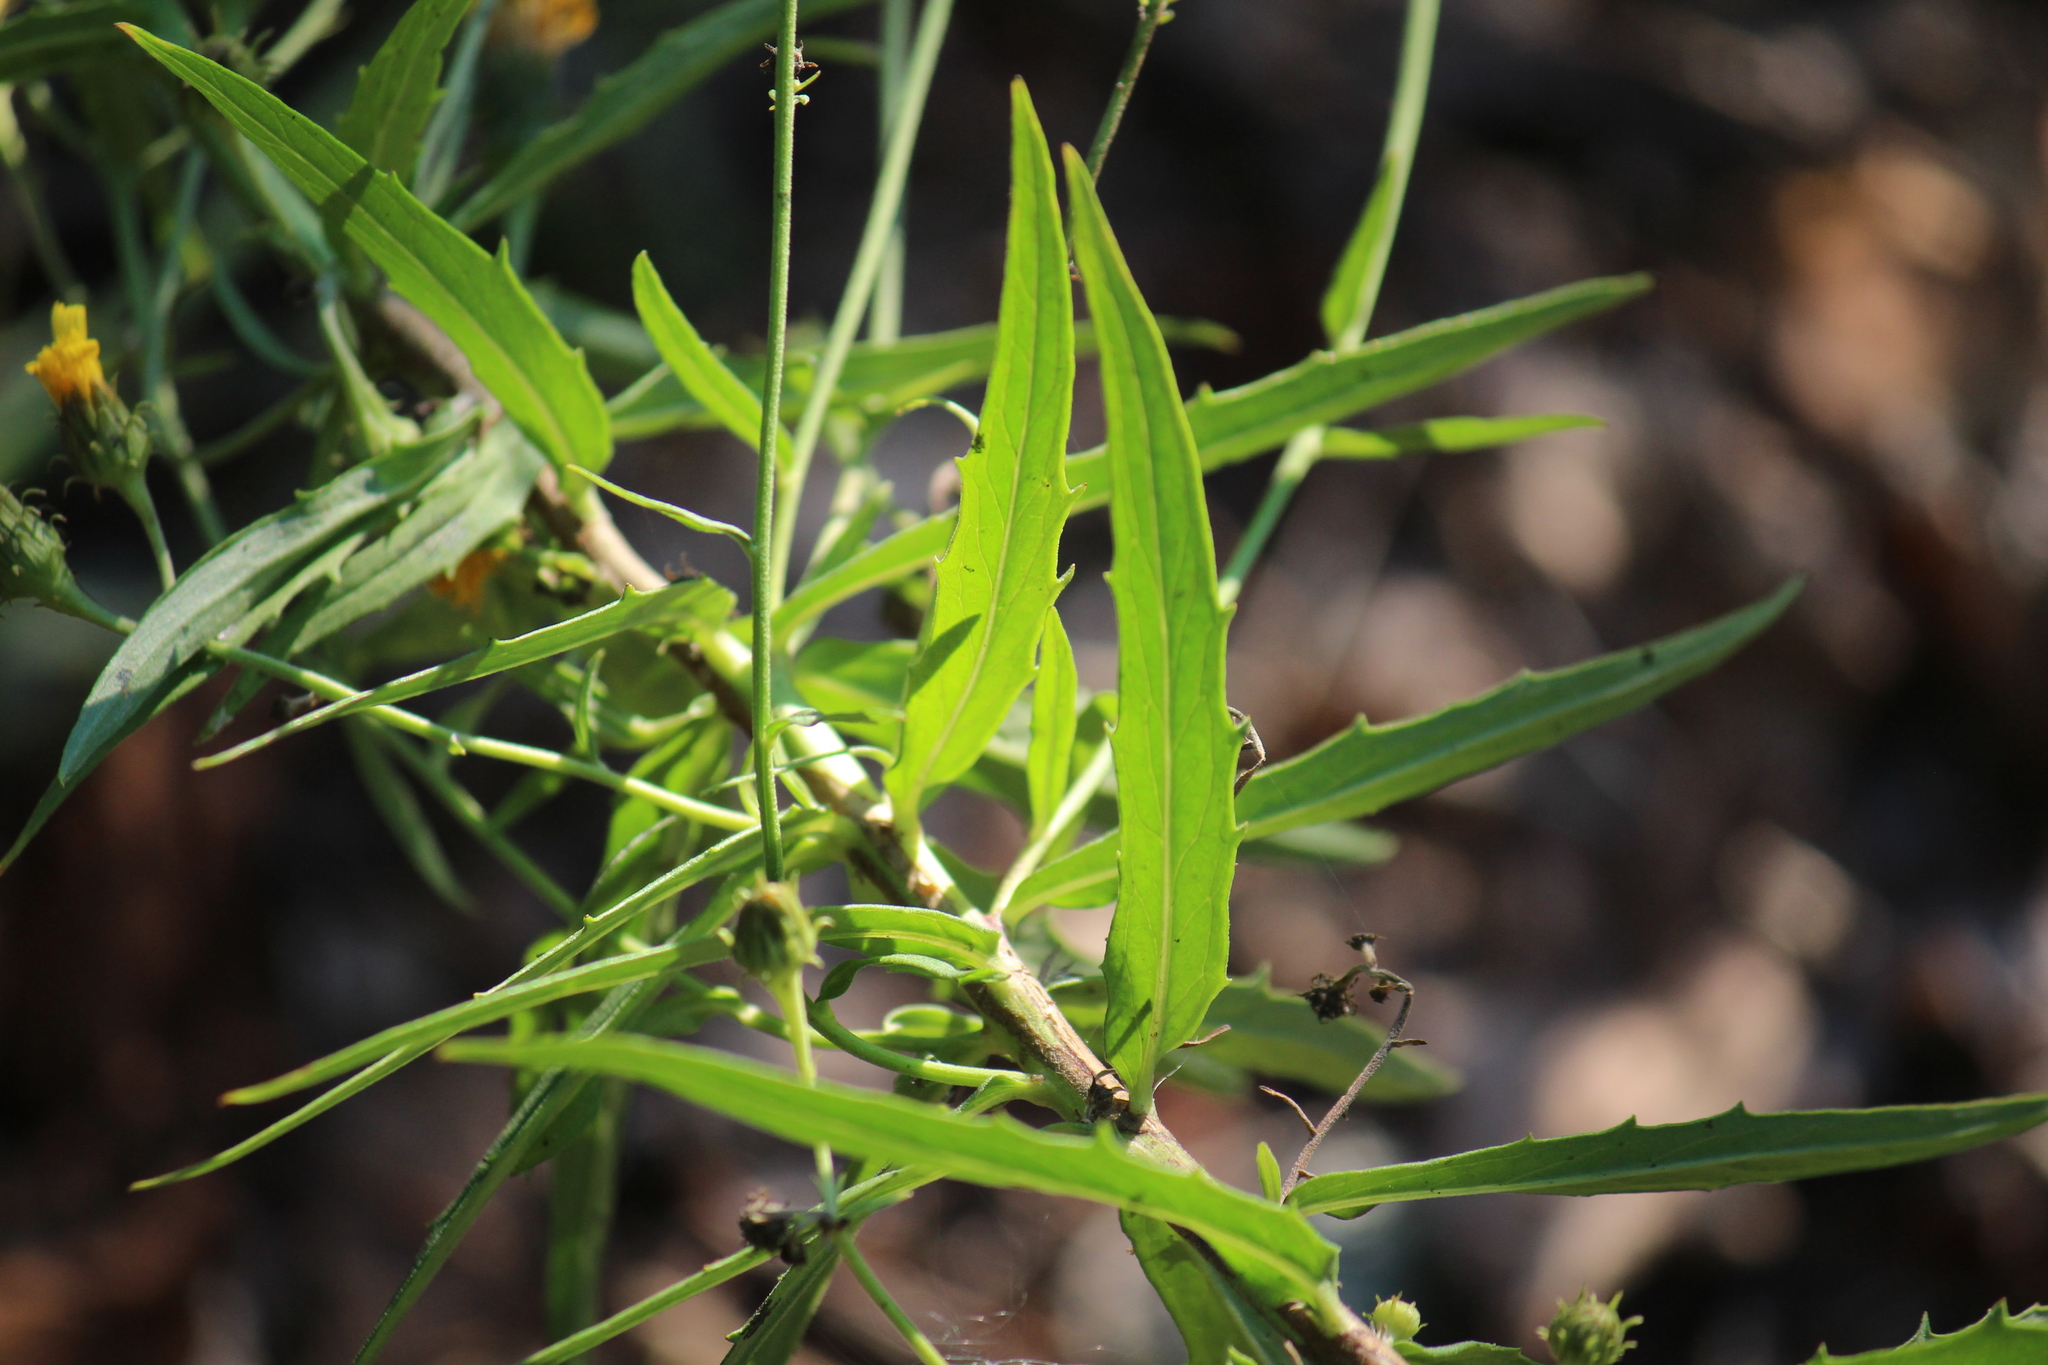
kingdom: Plantae
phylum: Tracheophyta
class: Magnoliopsida
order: Asterales
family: Asteraceae
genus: Hieracium
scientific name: Hieracium umbellatum
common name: Northern hawkweed
